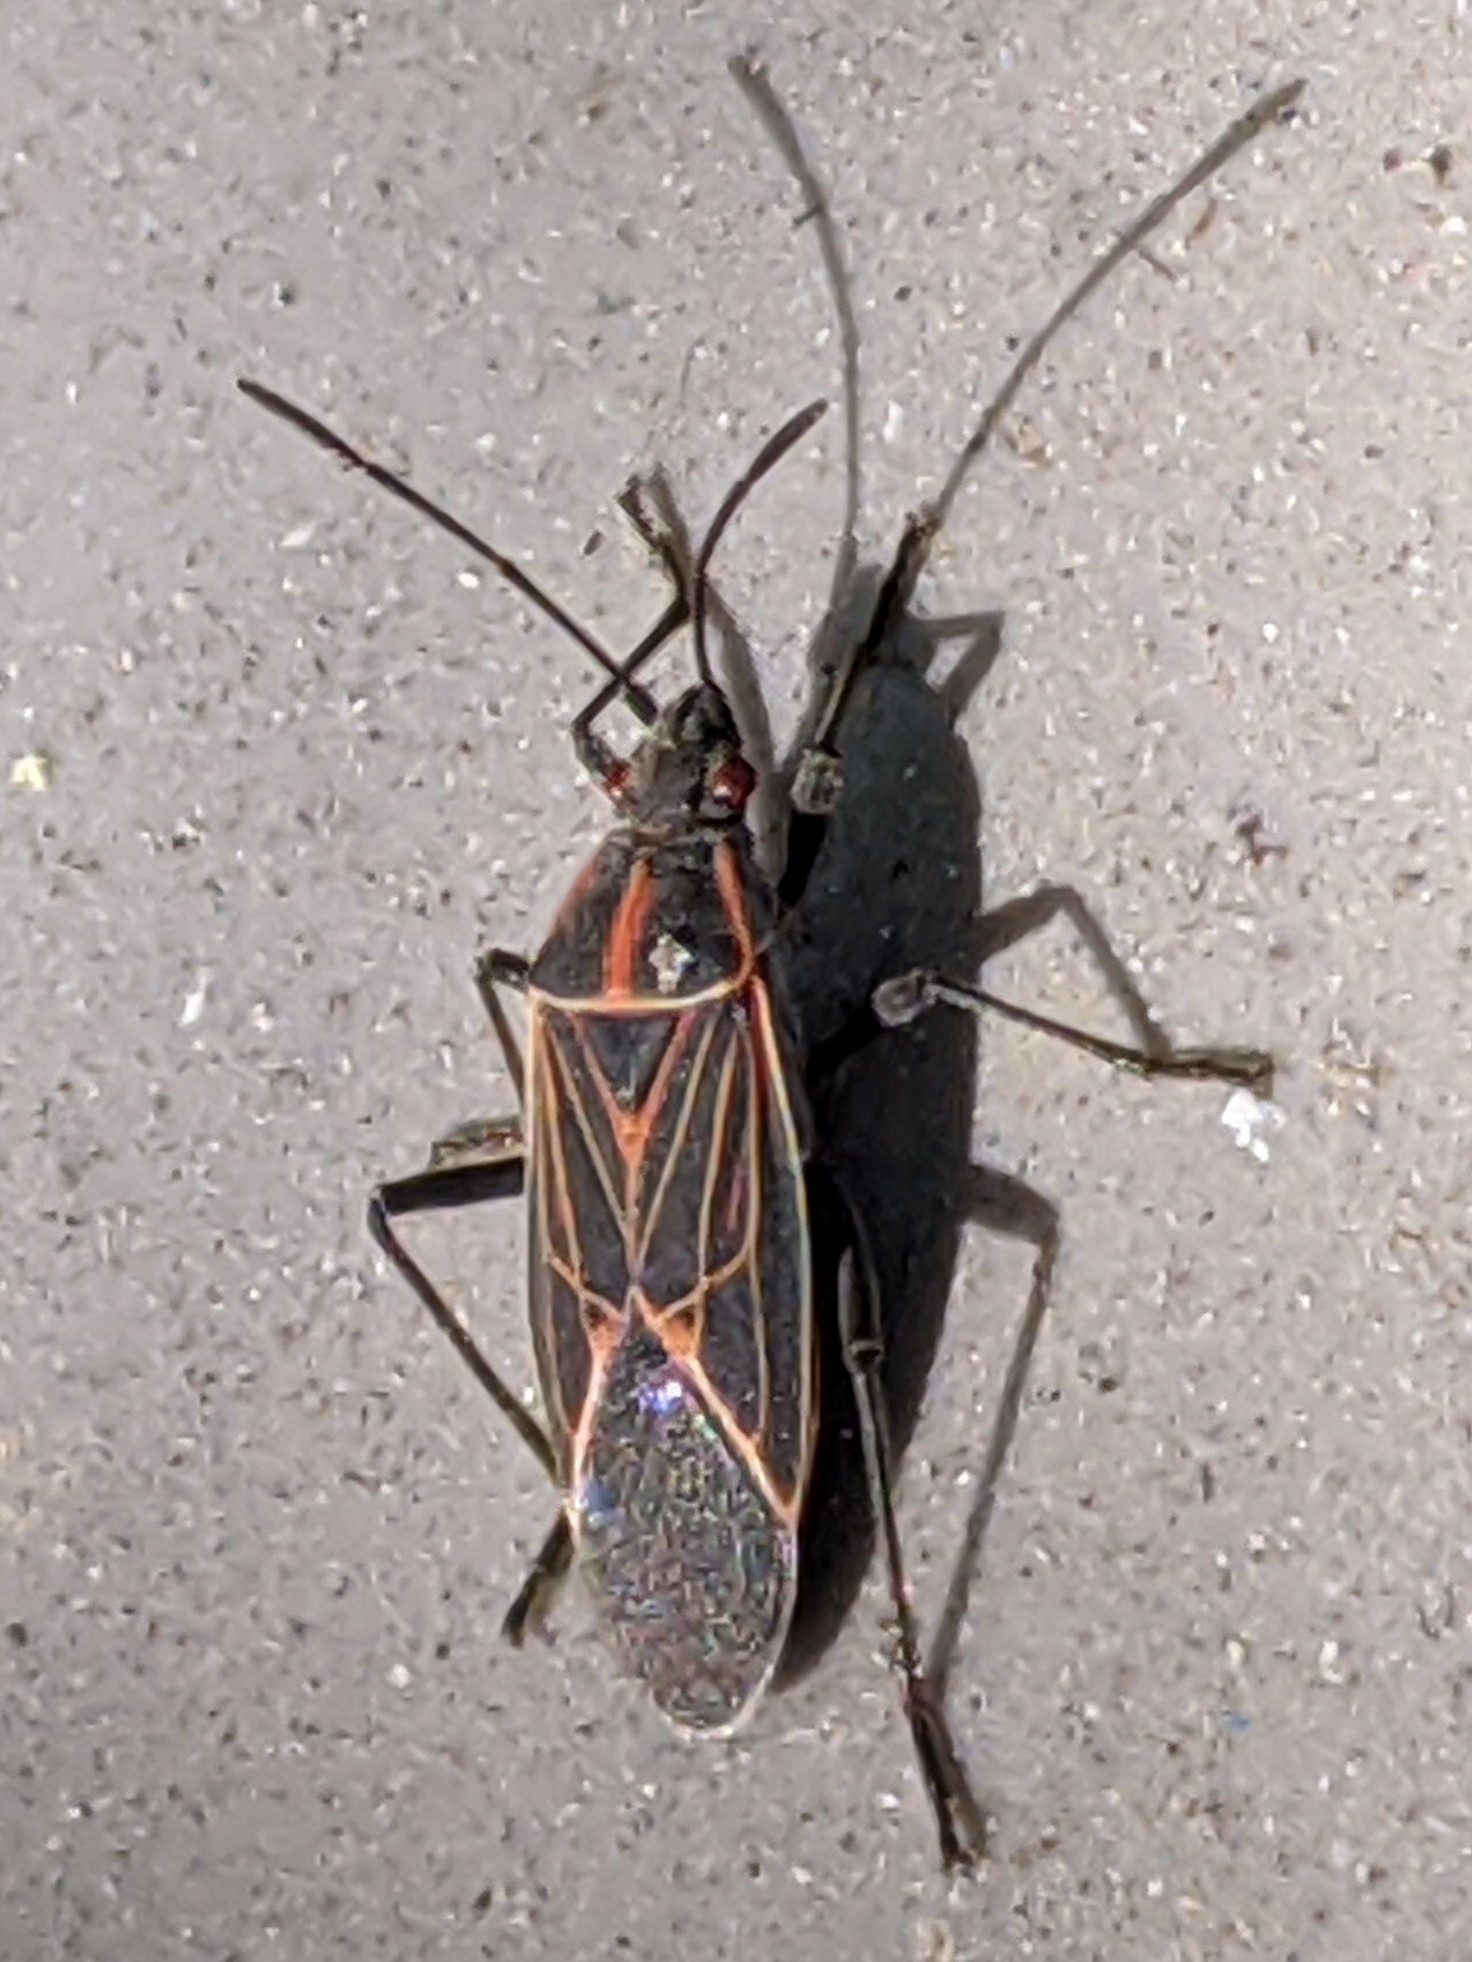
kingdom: Animalia
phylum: Arthropoda
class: Insecta
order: Hemiptera
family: Rhopalidae
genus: Boisea
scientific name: Boisea rubrolineata
